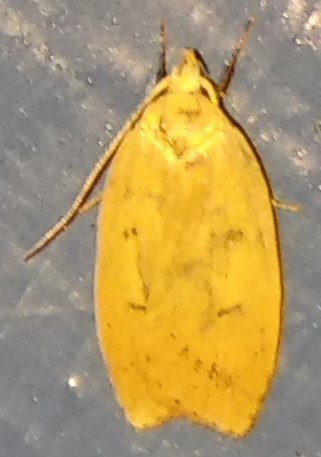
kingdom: Animalia
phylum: Arthropoda
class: Insecta
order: Lepidoptera
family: Peleopodidae
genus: Machimia
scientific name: Machimia tentoriferella
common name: Gold-striped leaftier moth
